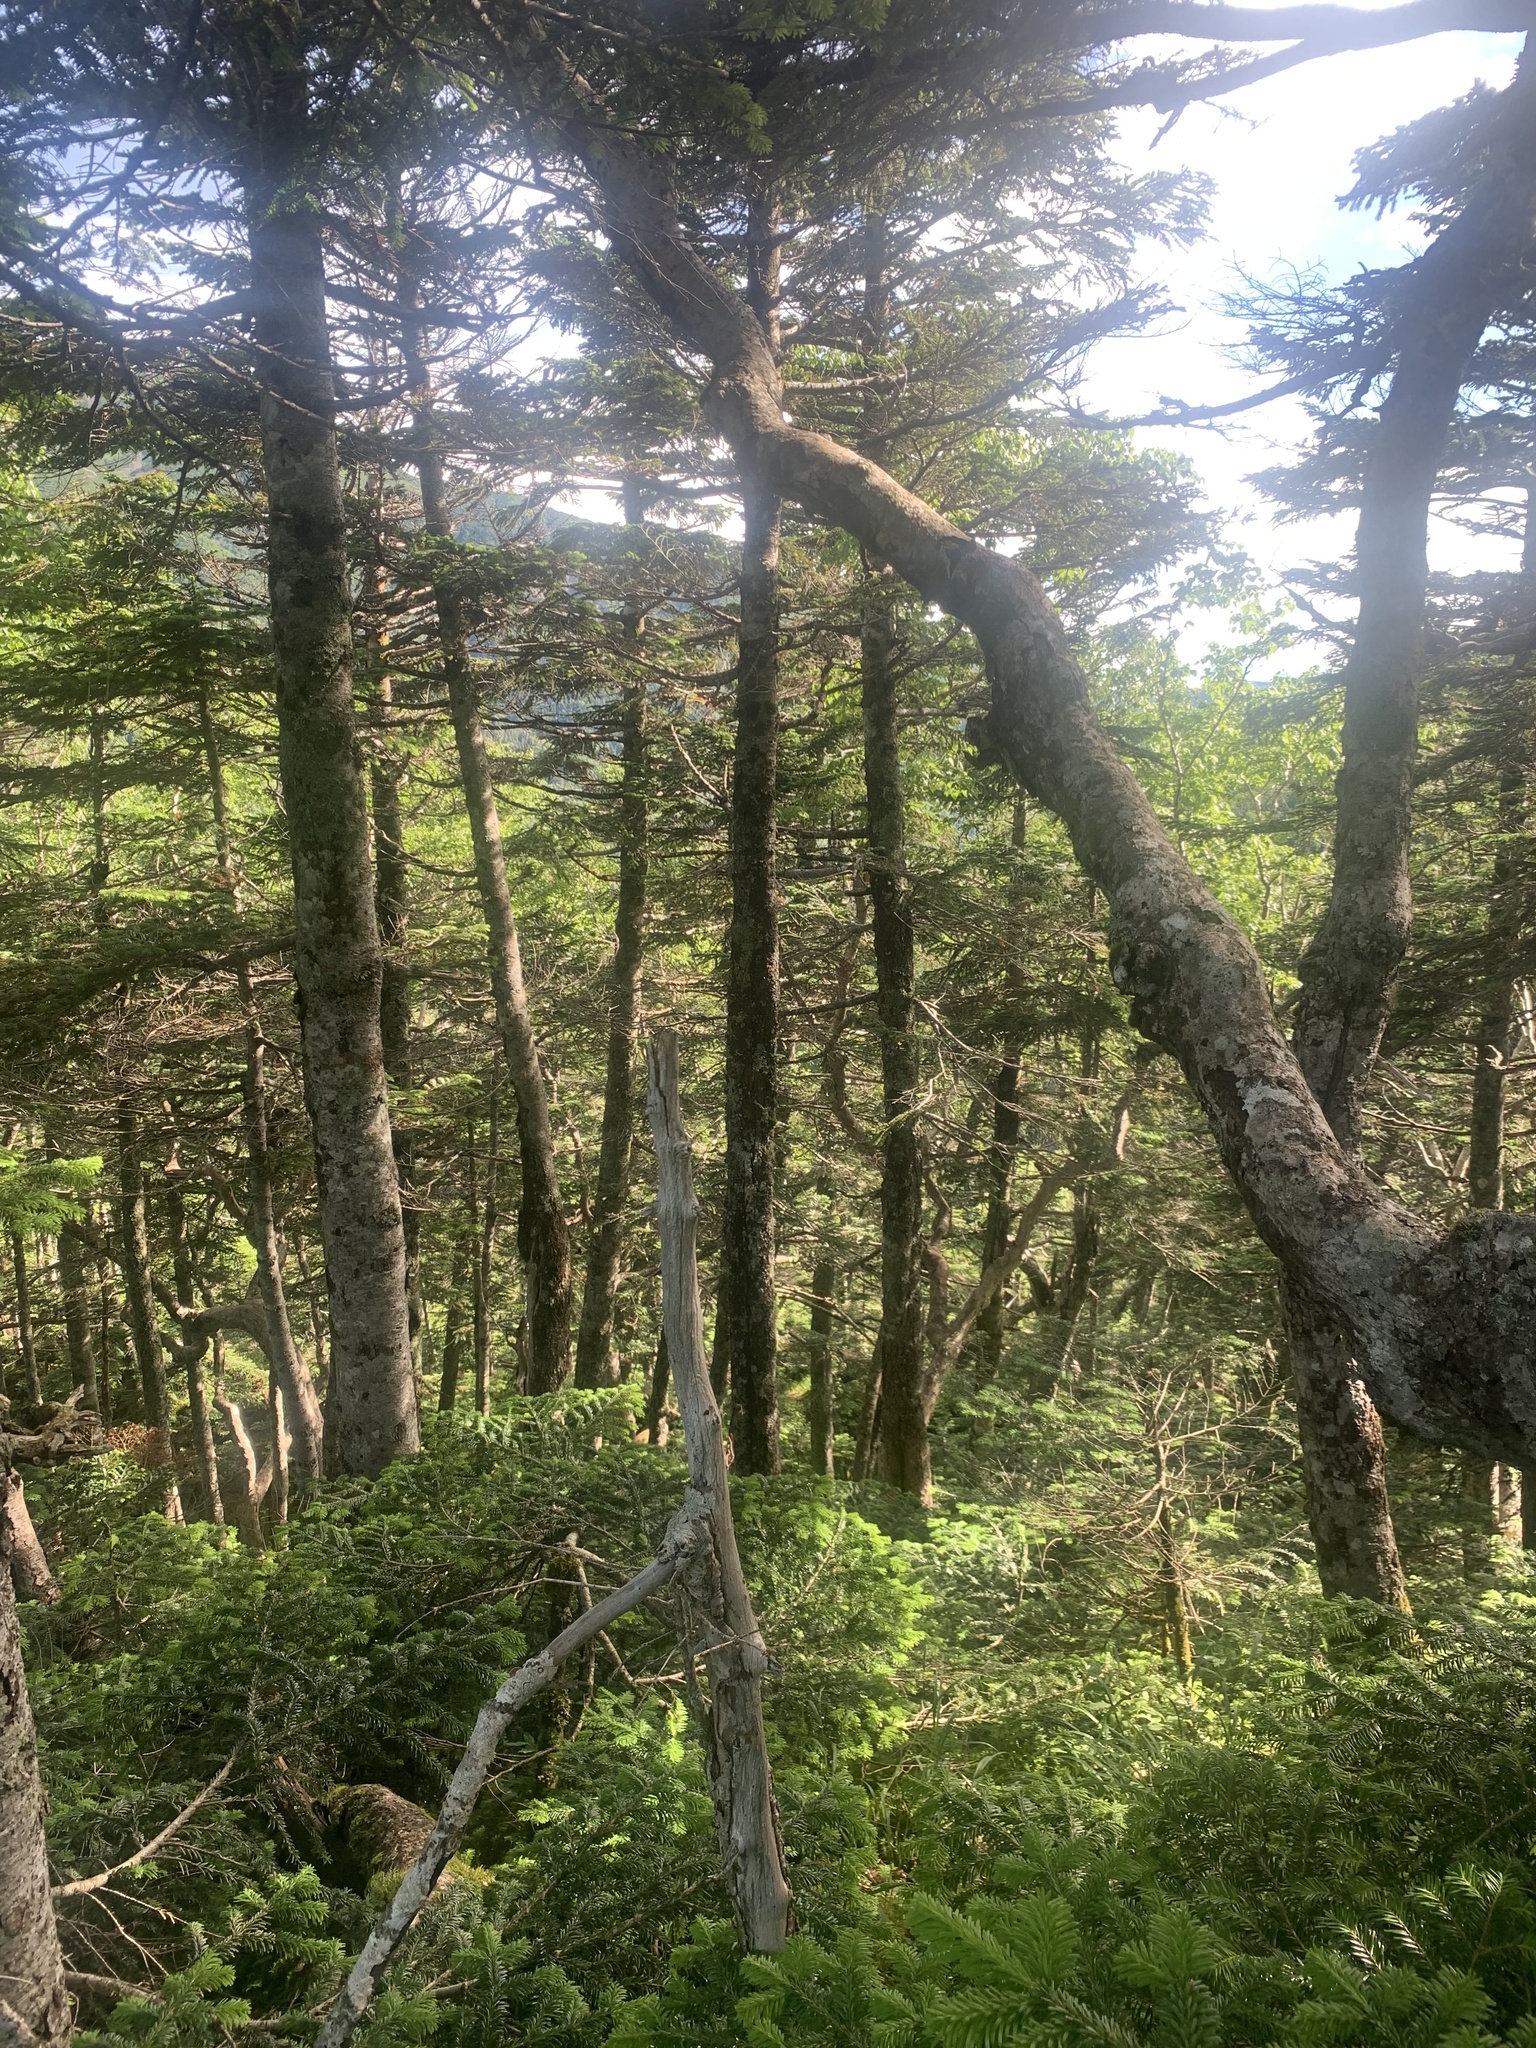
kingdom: Animalia
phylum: Chordata
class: Aves
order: Passeriformes
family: Phylloscopidae
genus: Phylloscopus
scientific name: Phylloscopus xanthodryas
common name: Japanese leaf warbler
